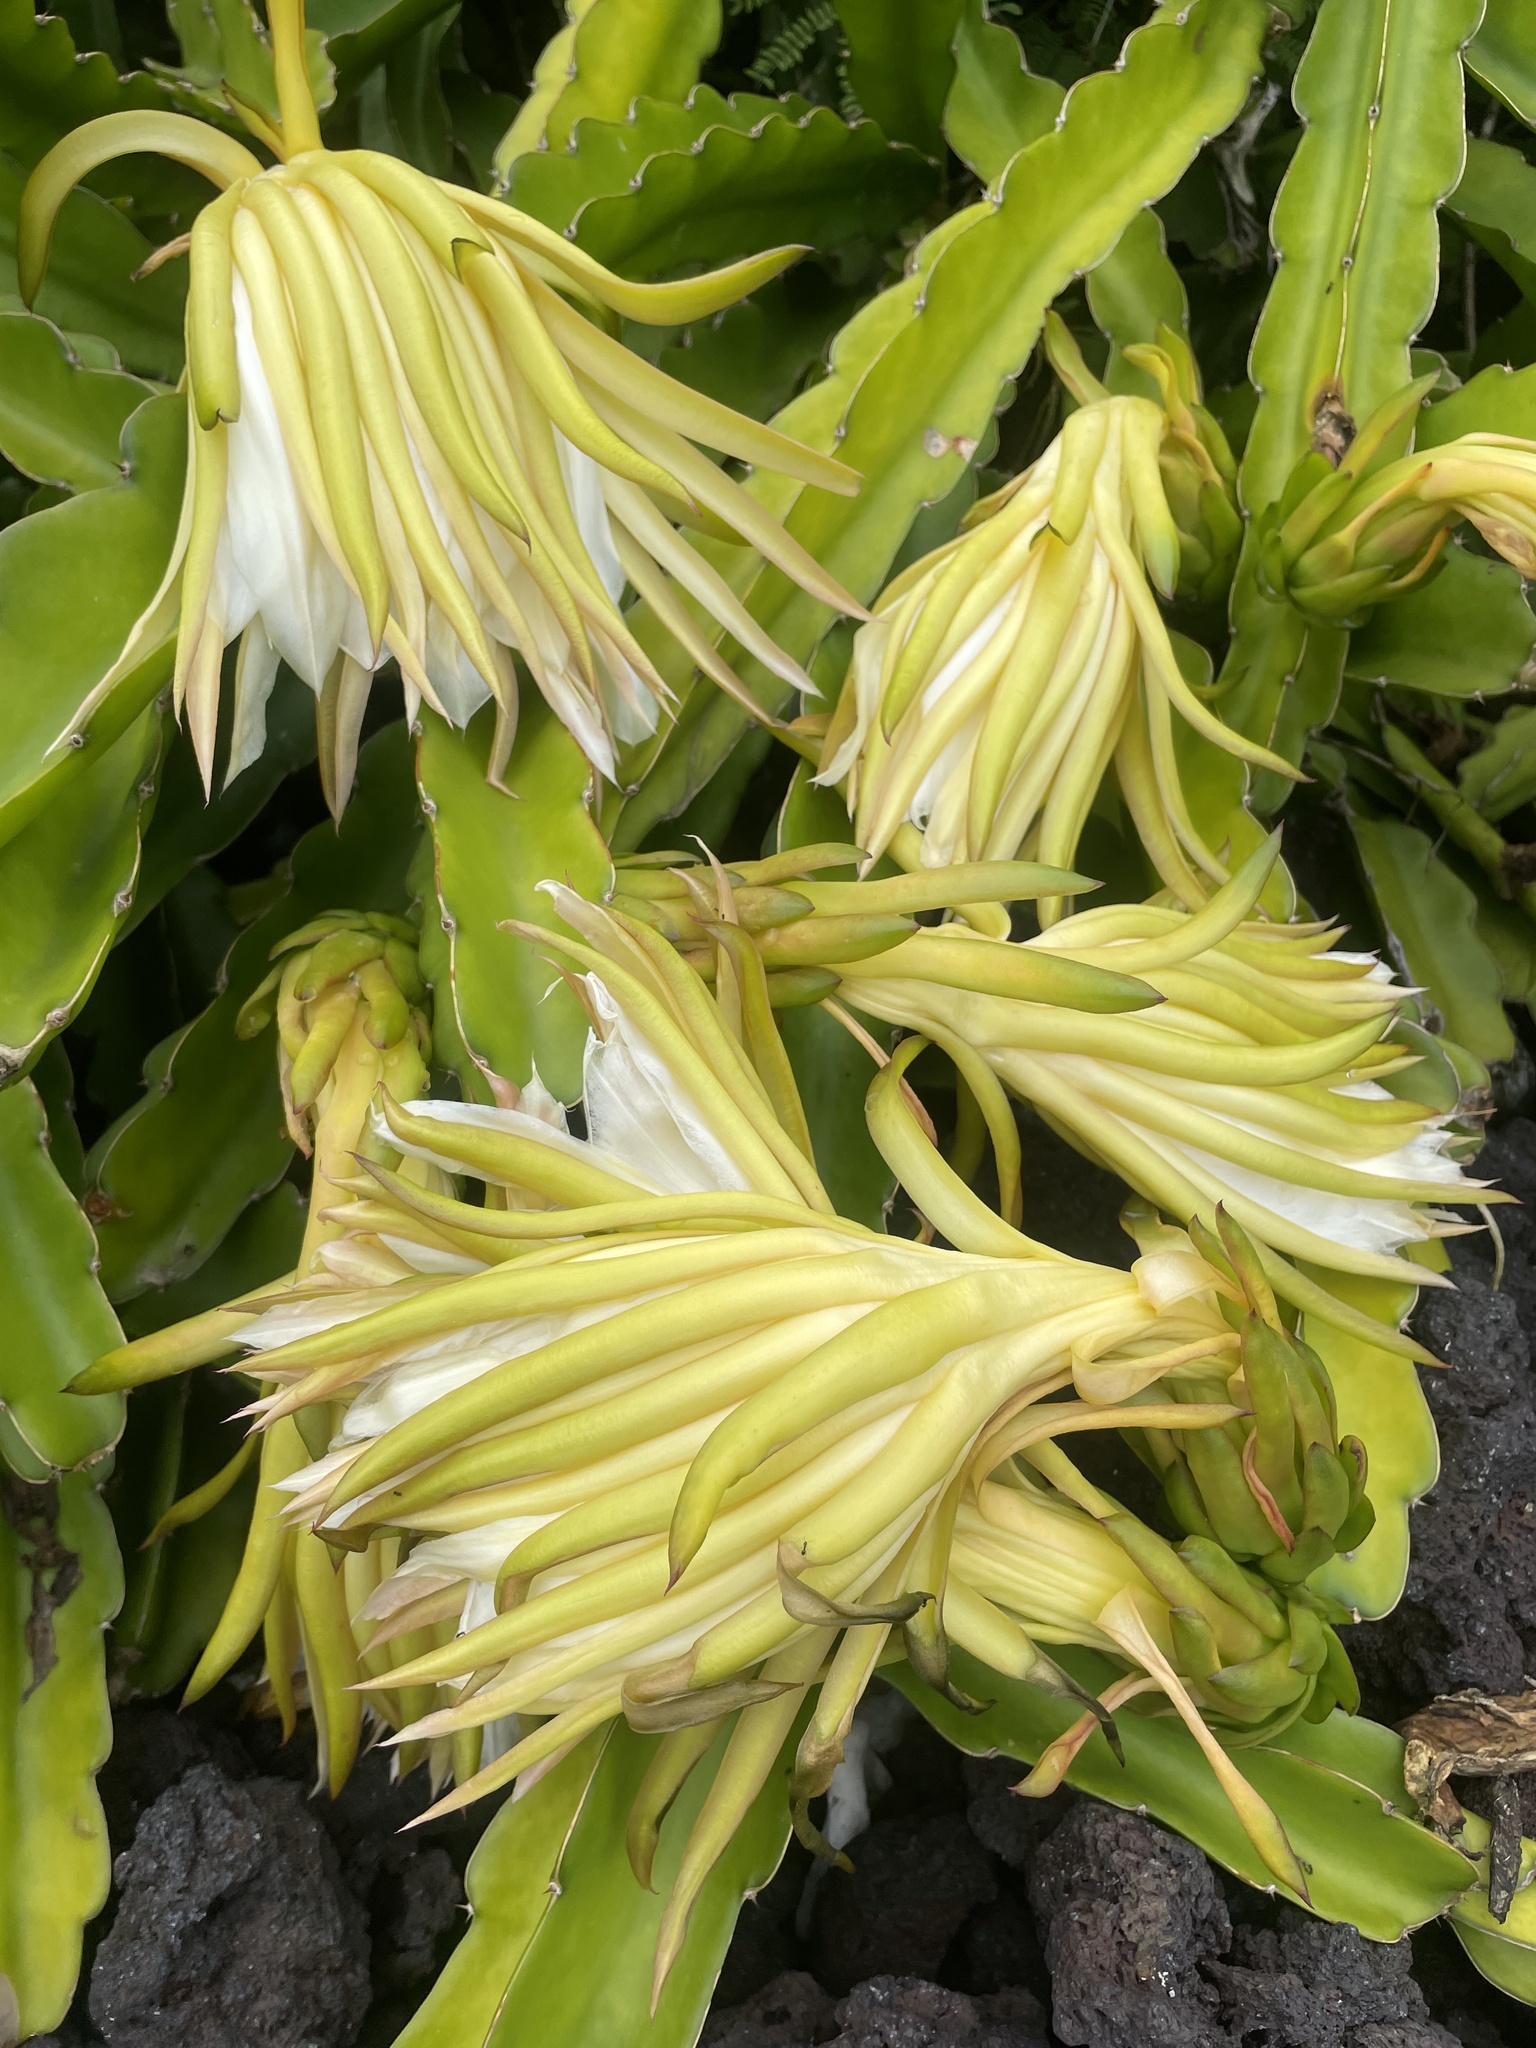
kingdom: Plantae
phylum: Tracheophyta
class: Magnoliopsida
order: Caryophyllales
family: Cactaceae
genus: Selenicereus
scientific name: Selenicereus undatus
